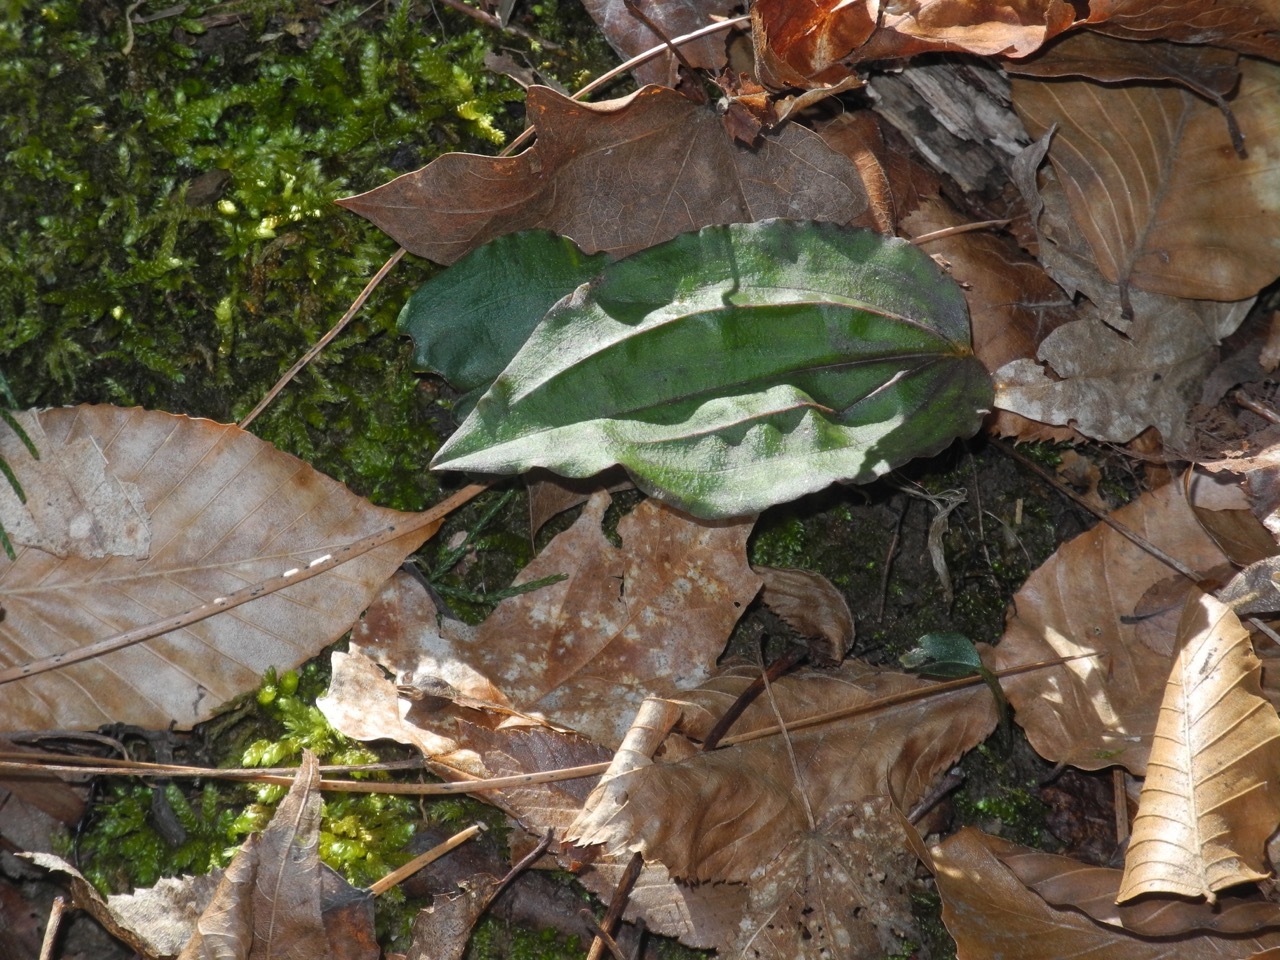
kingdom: Plantae
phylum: Tracheophyta
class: Liliopsida
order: Asparagales
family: Orchidaceae
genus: Tipularia
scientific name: Tipularia discolor
